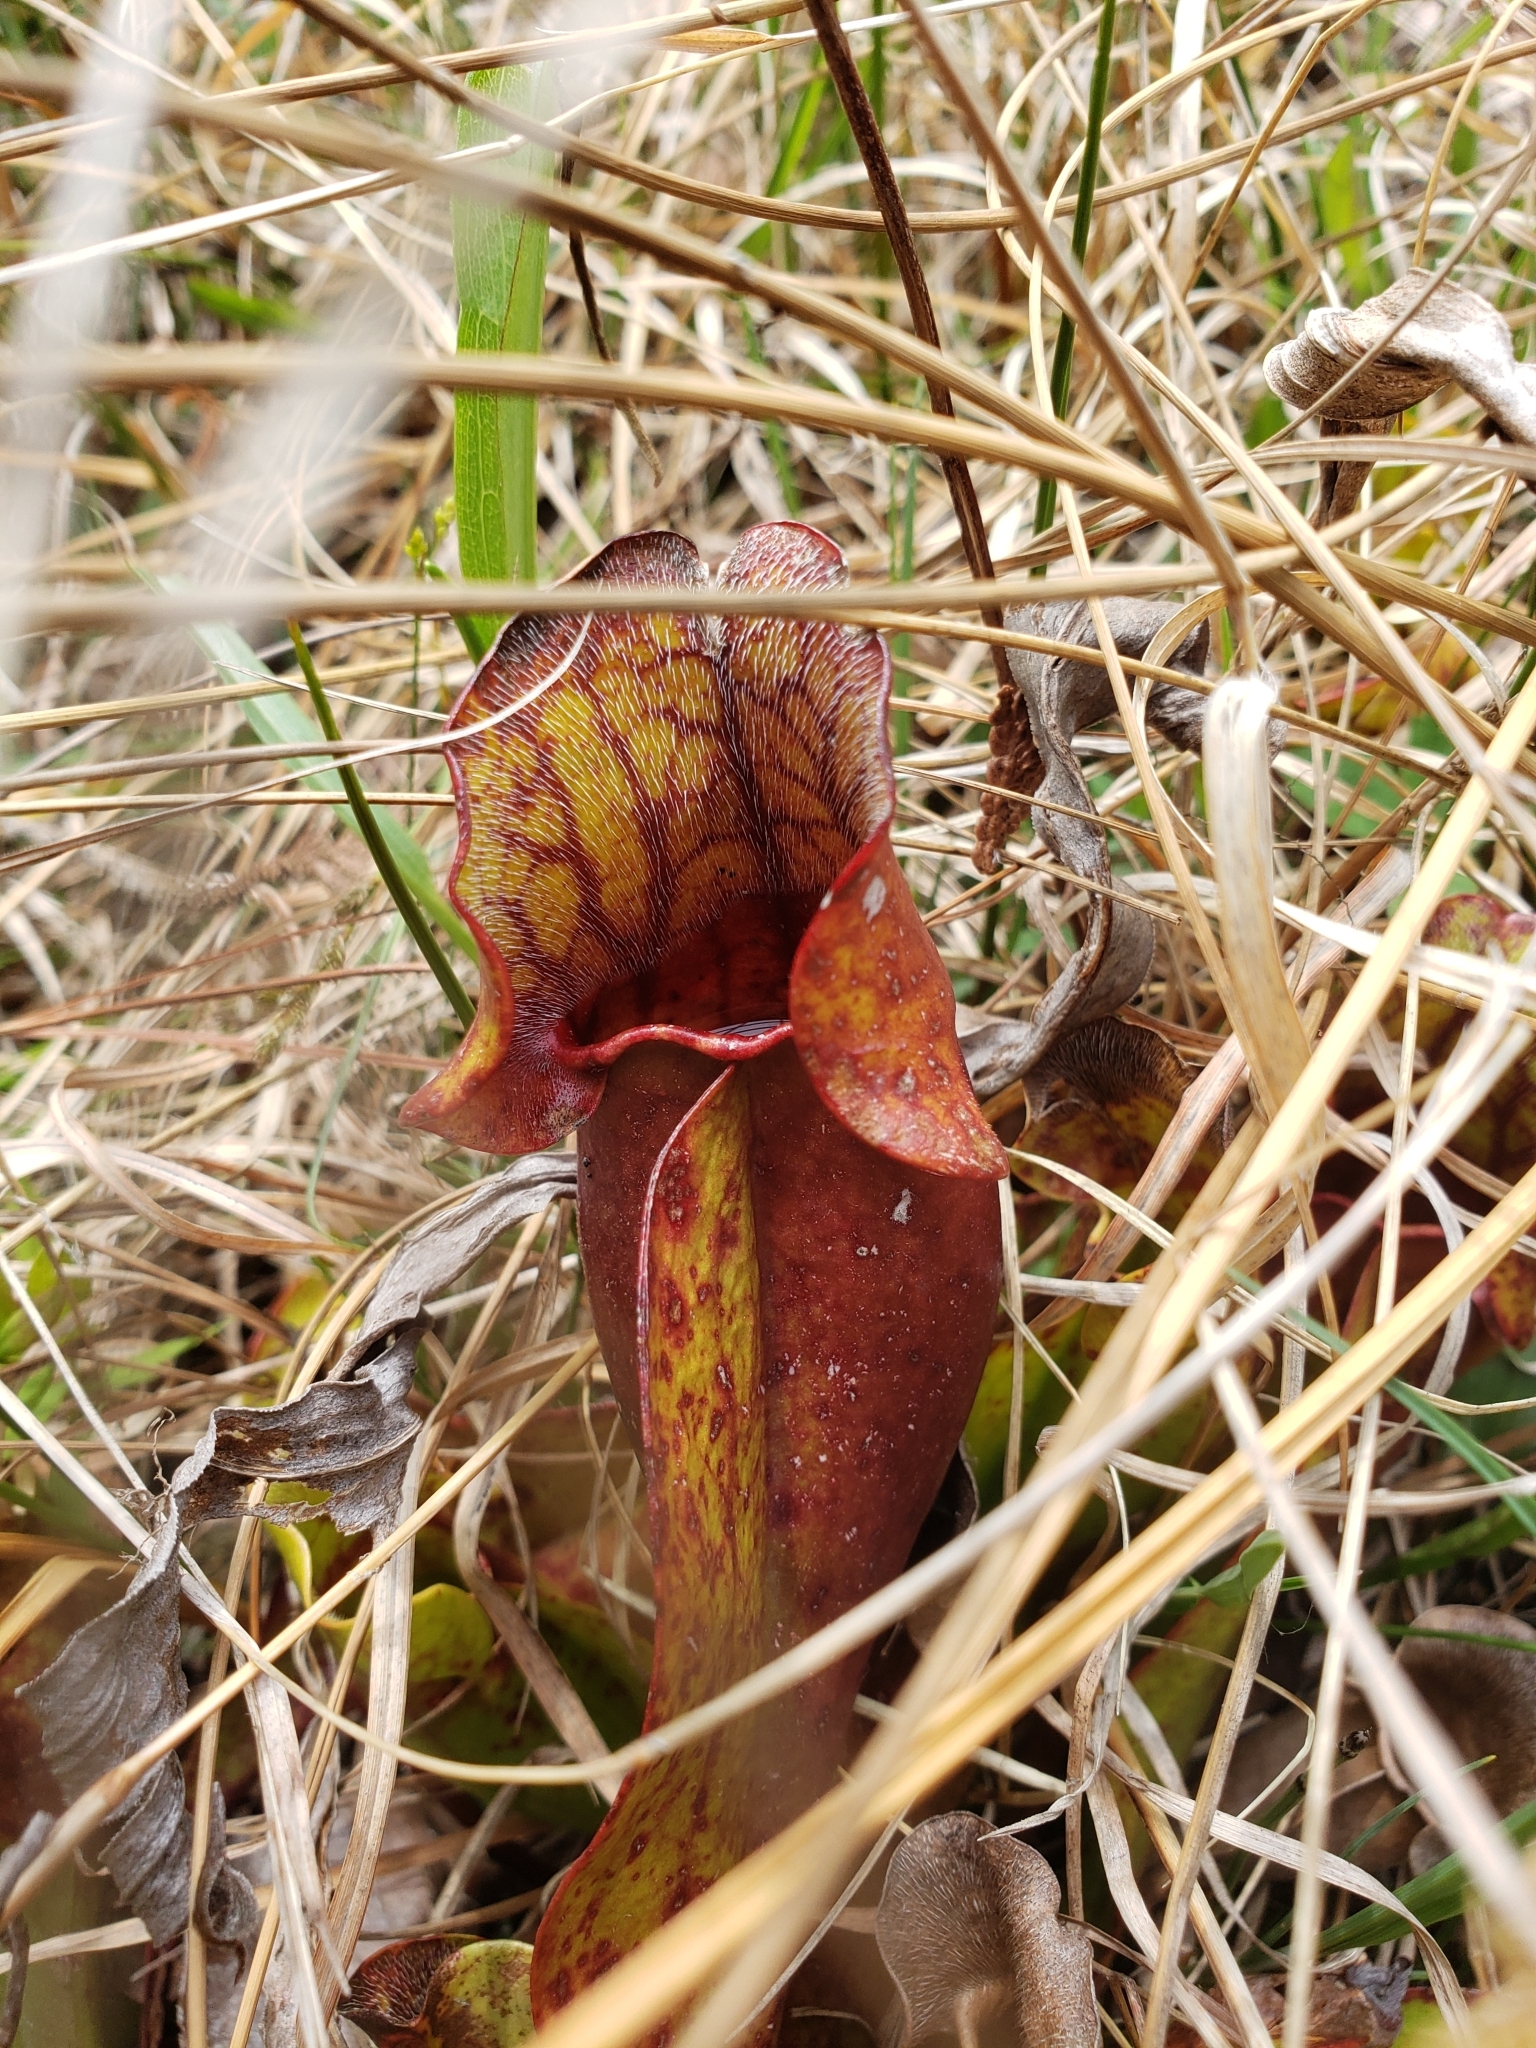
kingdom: Plantae
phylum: Tracheophyta
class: Magnoliopsida
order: Ericales
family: Sarraceniaceae
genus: Sarracenia
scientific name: Sarracenia purpurea
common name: Pitcherplant
